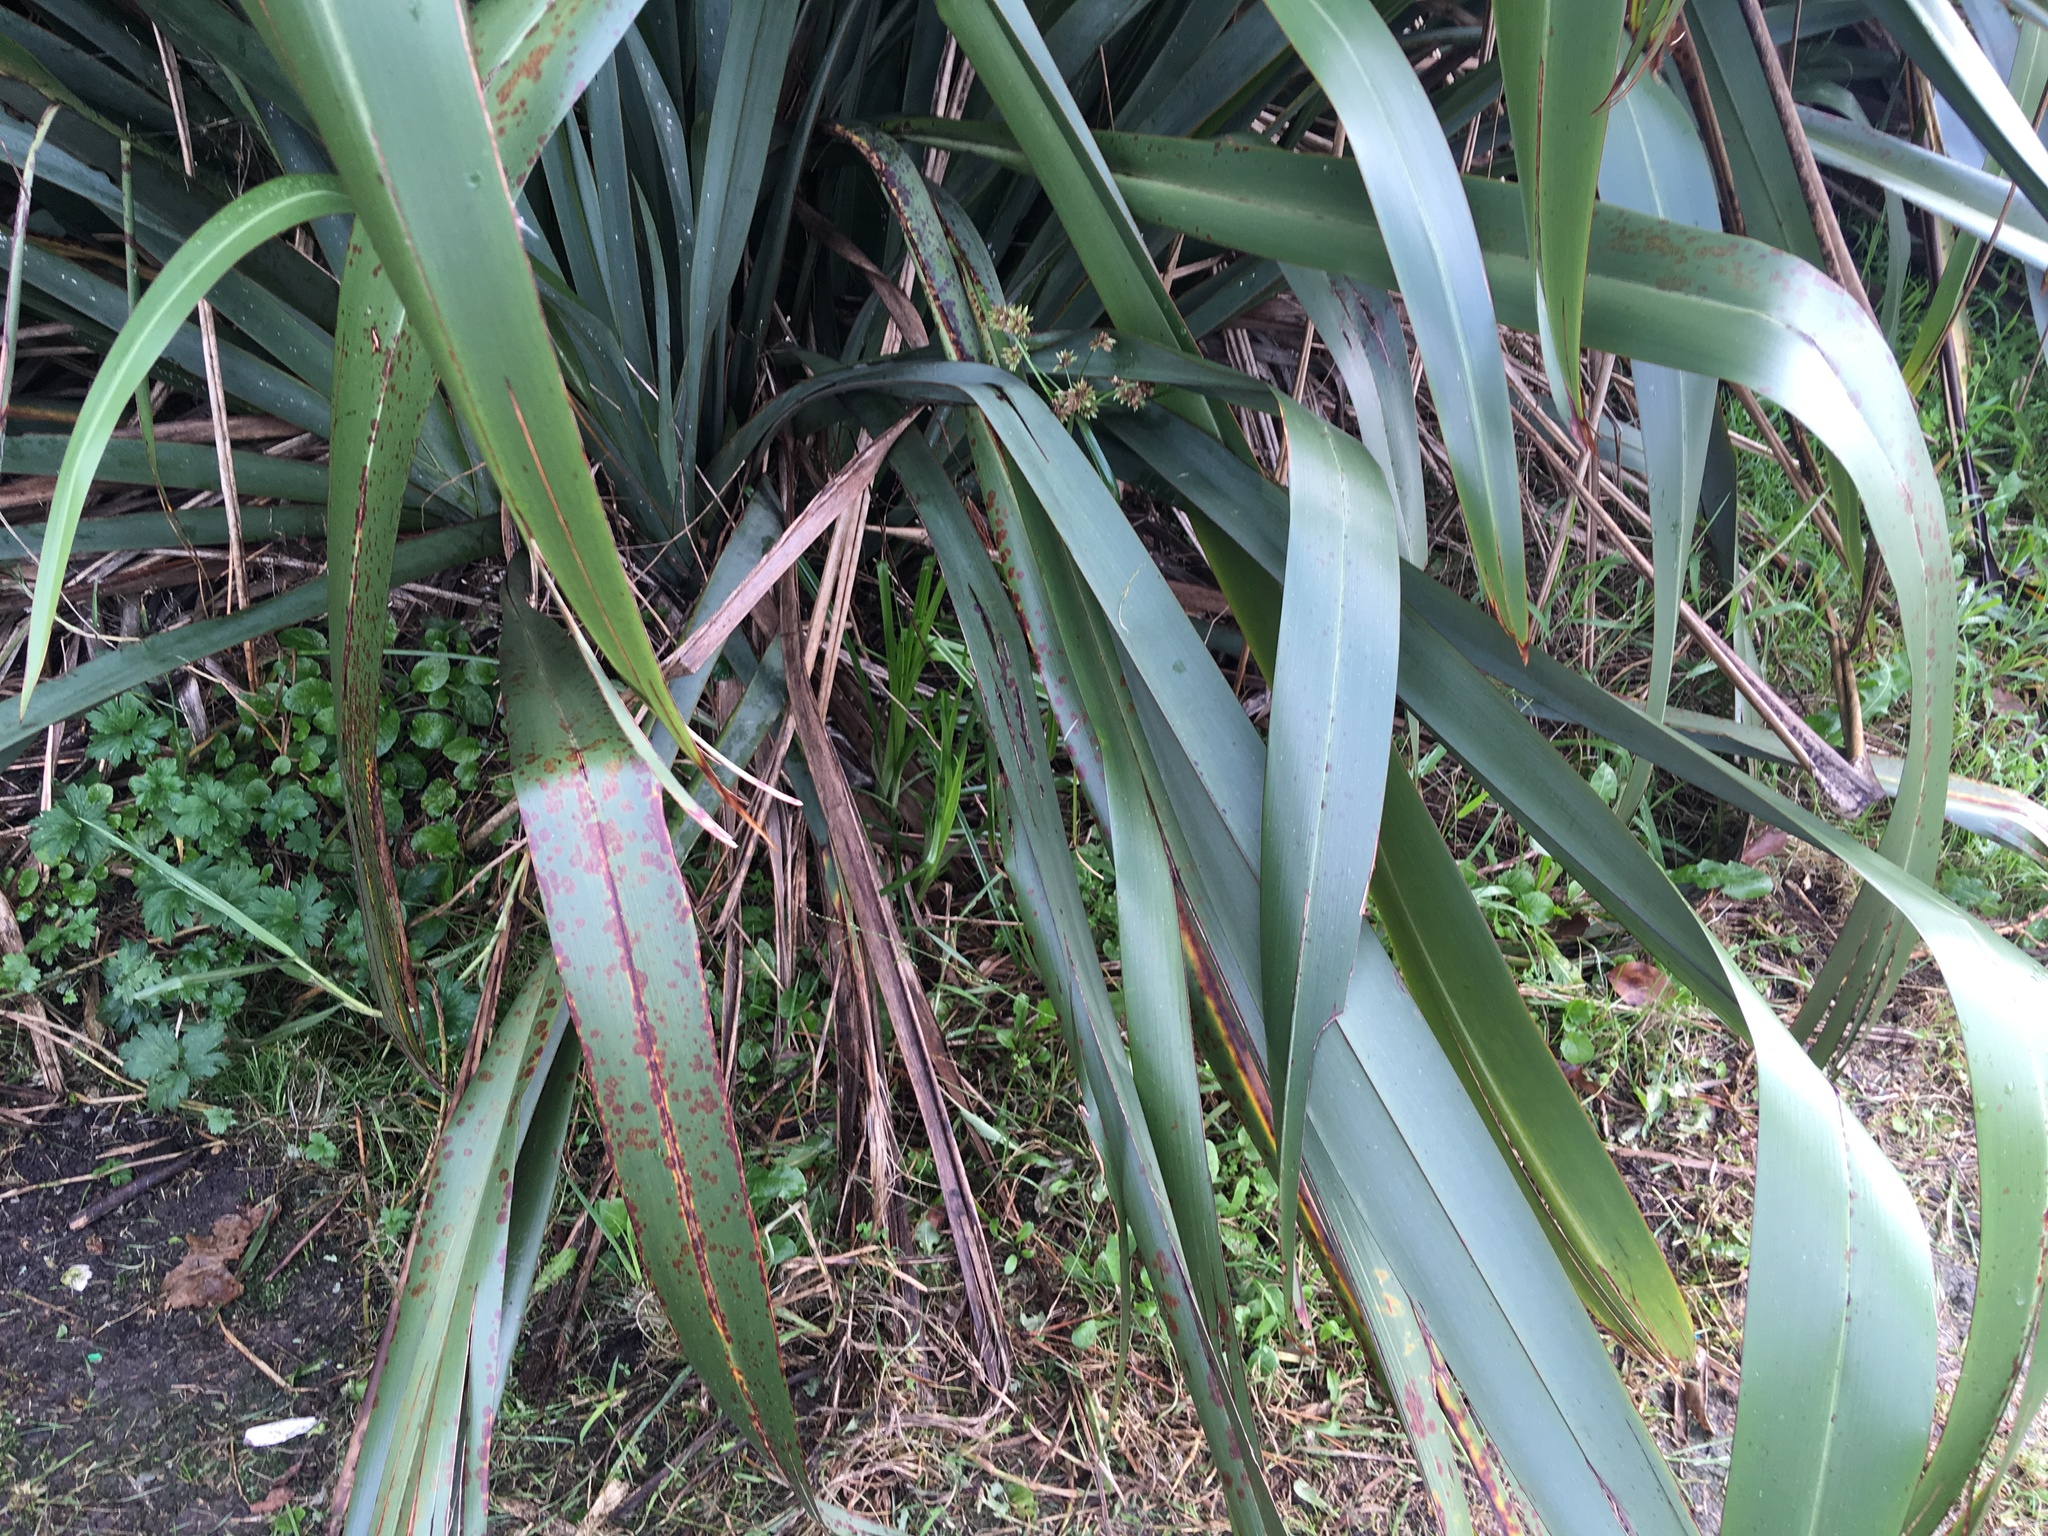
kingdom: Plantae
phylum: Tracheophyta
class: Liliopsida
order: Poales
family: Cyperaceae
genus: Cyperus
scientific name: Cyperus eragrostis
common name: Tall flatsedge
